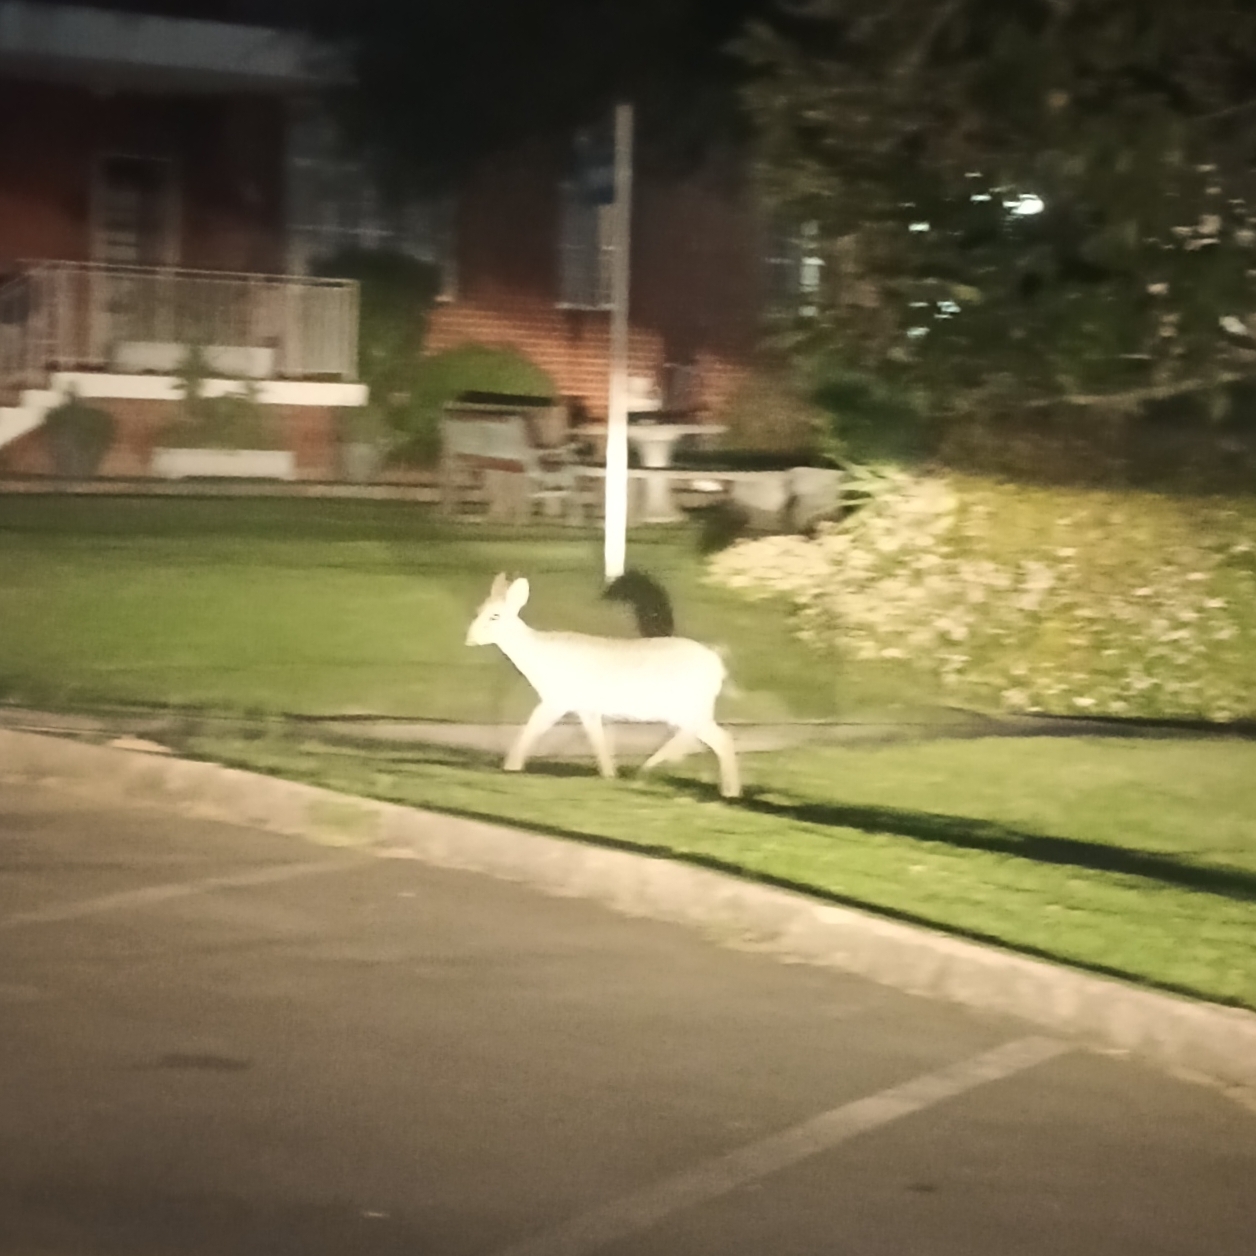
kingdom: Animalia
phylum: Chordata
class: Mammalia
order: Artiodactyla
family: Bovidae
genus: Sylvicapra
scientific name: Sylvicapra grimmia
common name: Bush duiker
